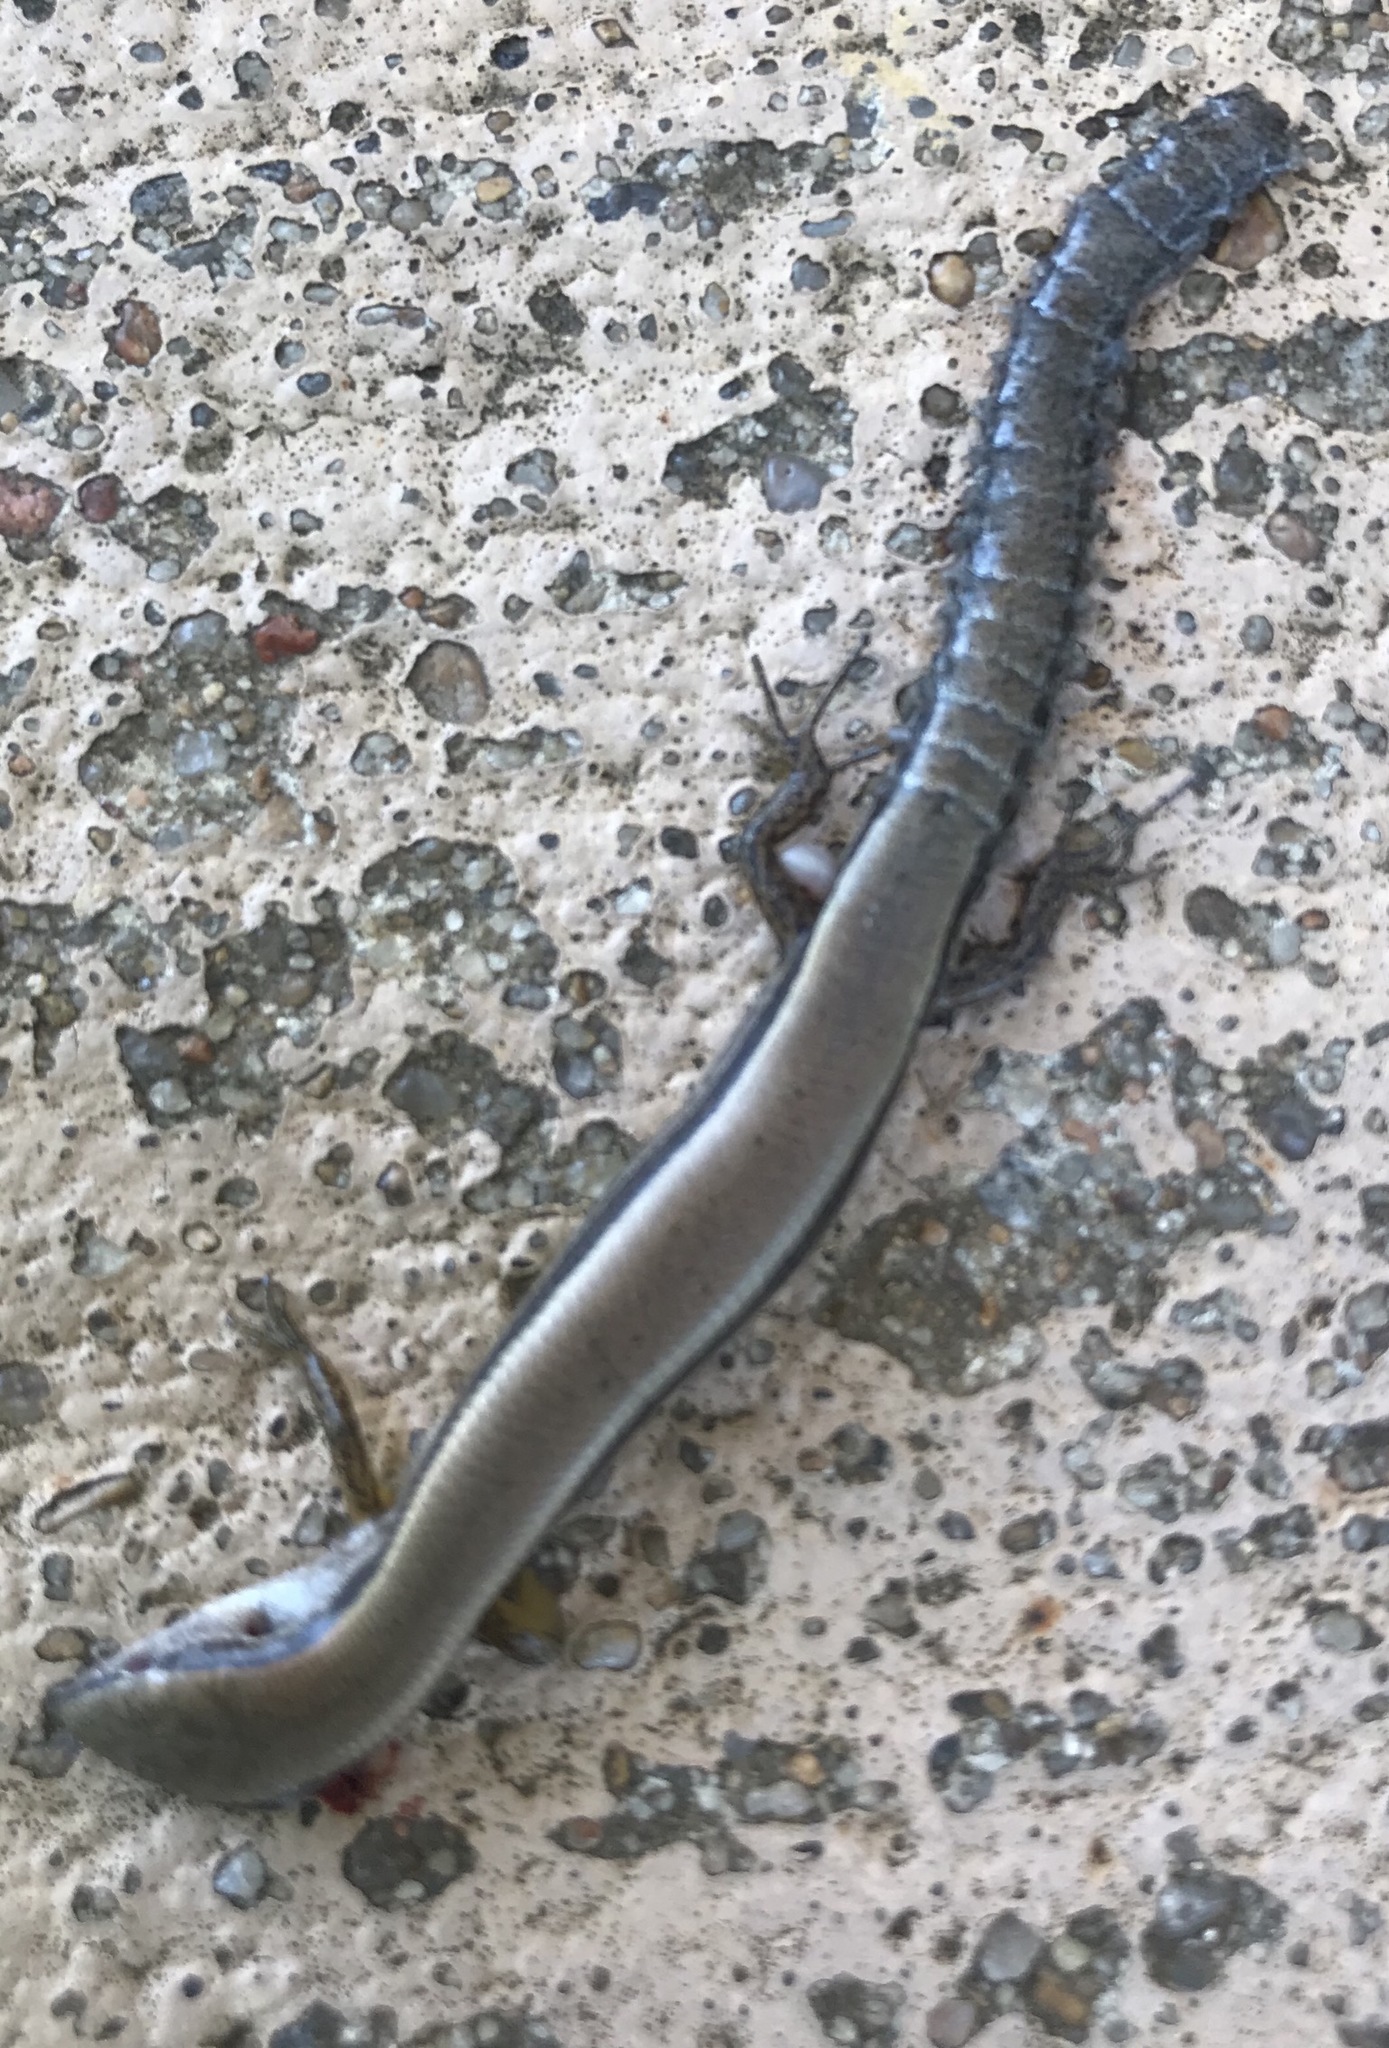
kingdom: Animalia
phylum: Chordata
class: Squamata
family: Scincidae
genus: Scincella
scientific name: Scincella lateralis
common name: Ground skink
